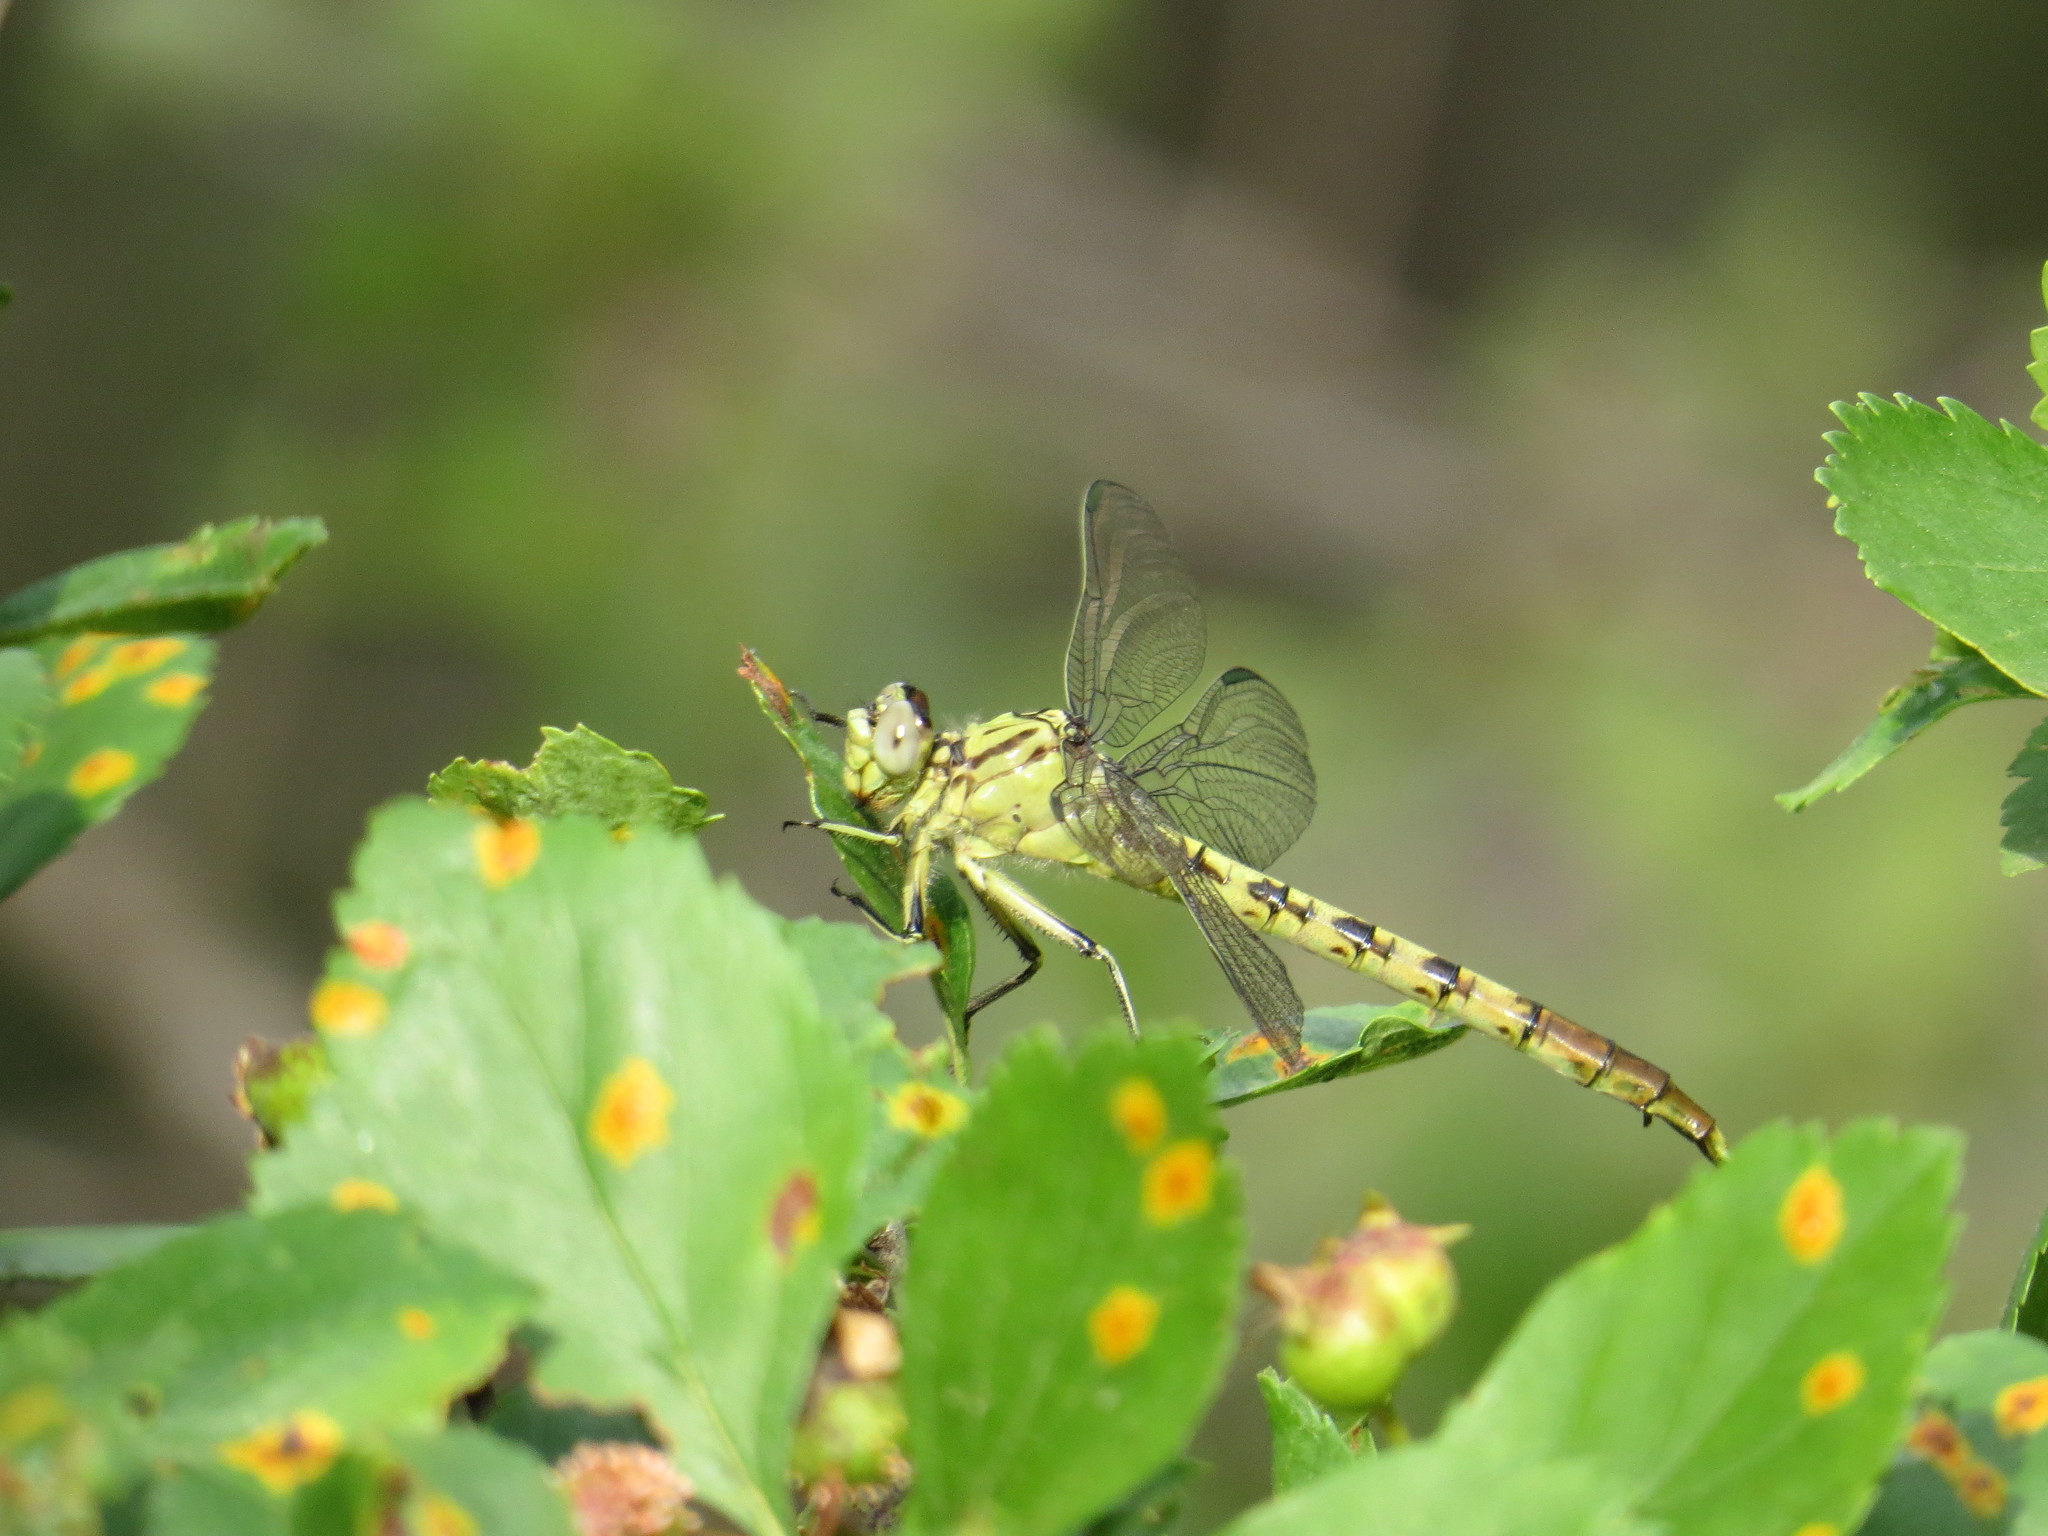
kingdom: Animalia
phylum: Arthropoda
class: Insecta
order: Odonata
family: Gomphidae
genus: Arigomphus
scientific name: Arigomphus submedianus
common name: Jade clubtail
